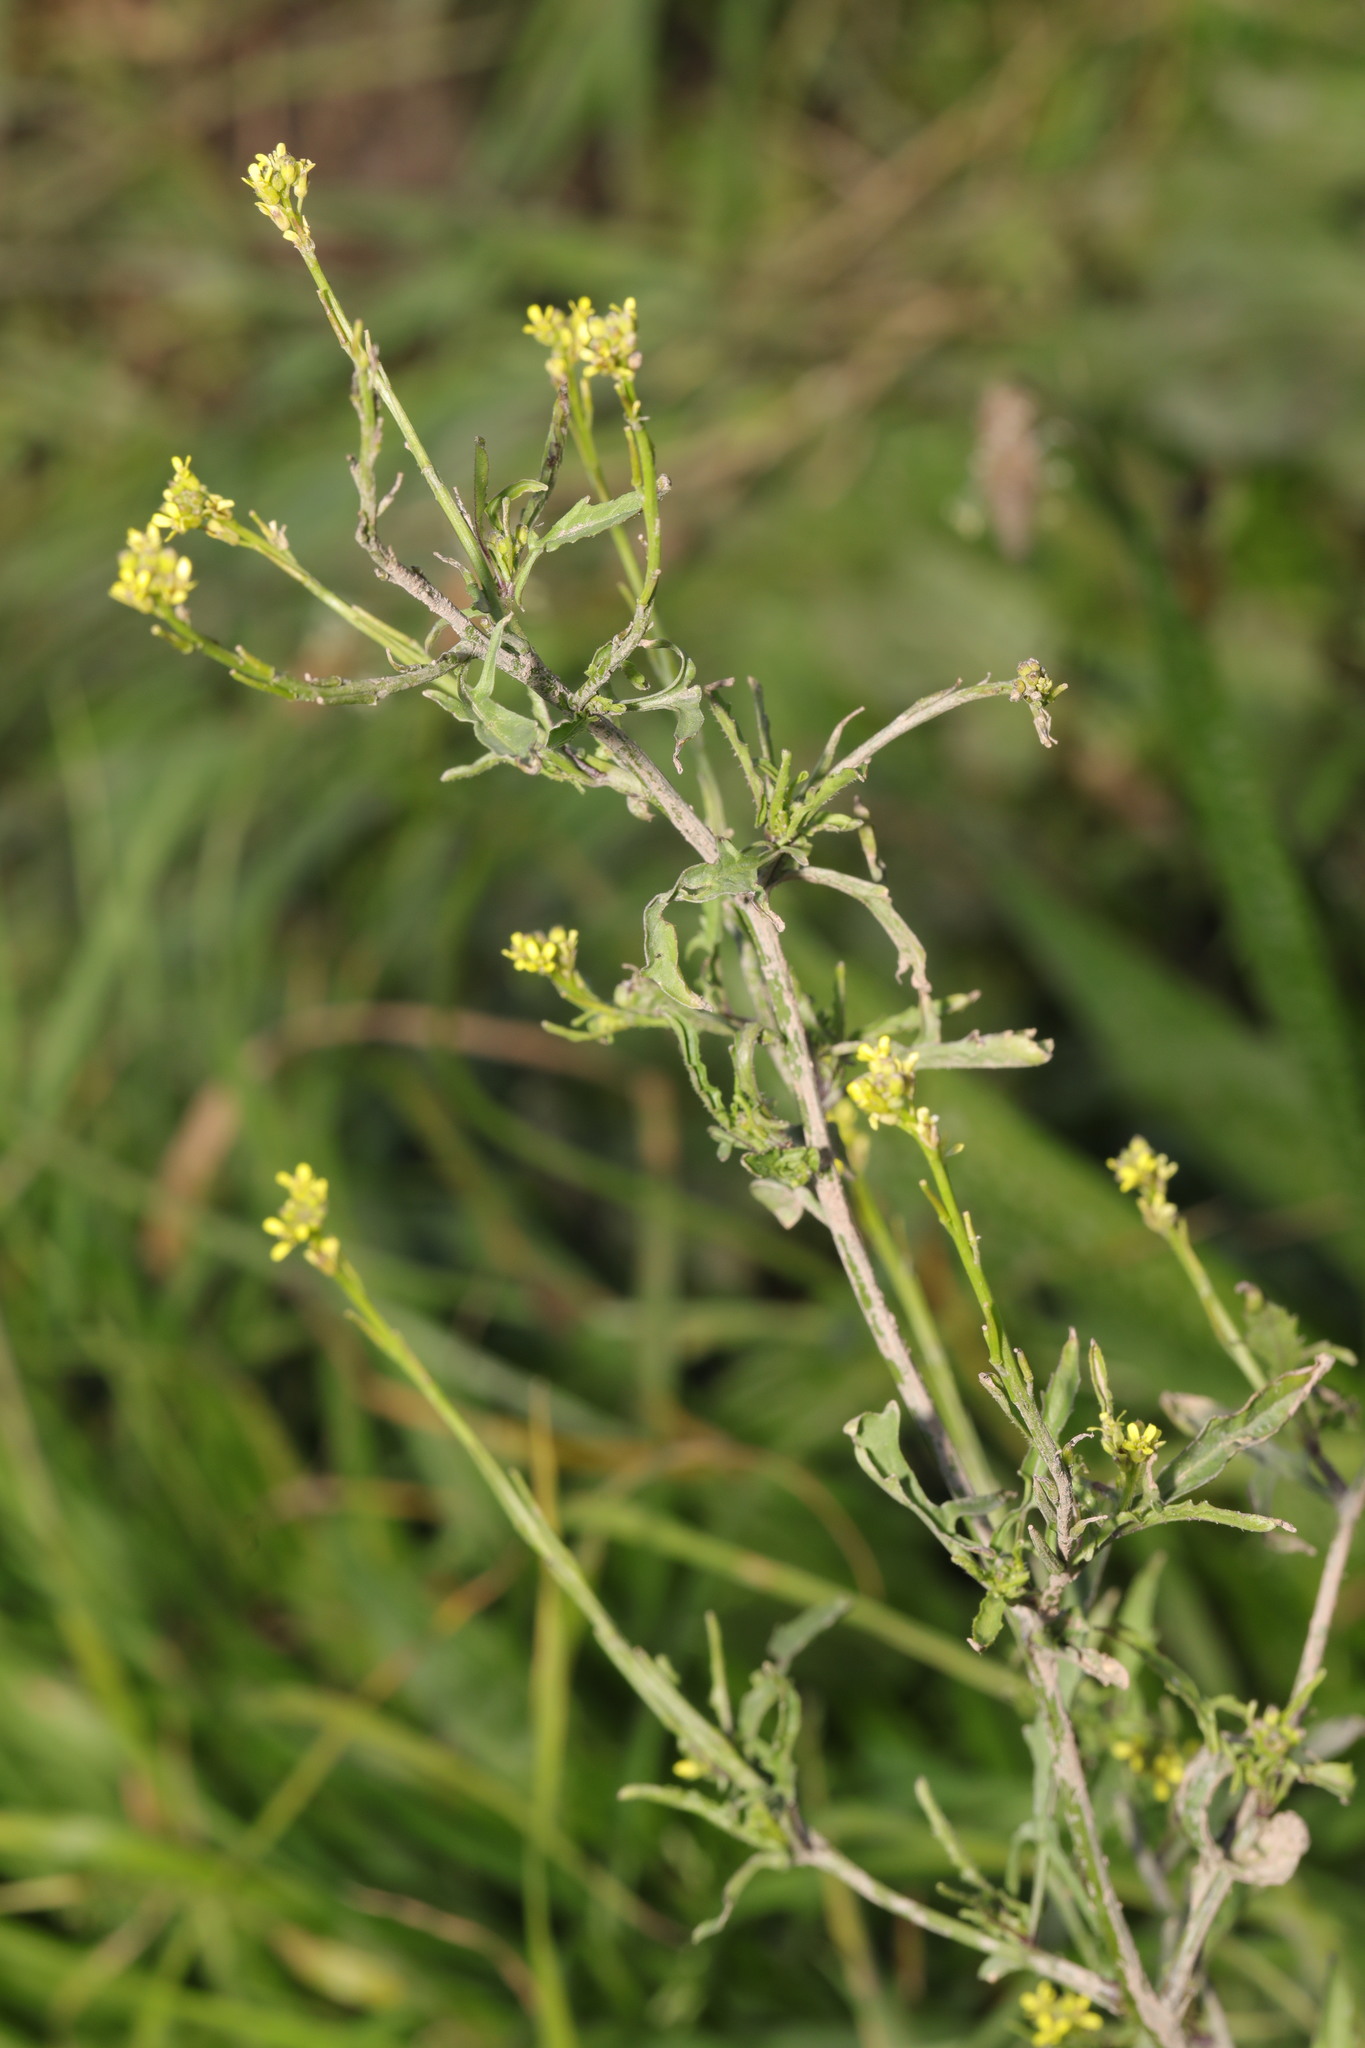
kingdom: Plantae
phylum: Tracheophyta
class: Magnoliopsida
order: Brassicales
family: Brassicaceae
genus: Sisymbrium
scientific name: Sisymbrium officinale
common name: Hedge mustard
